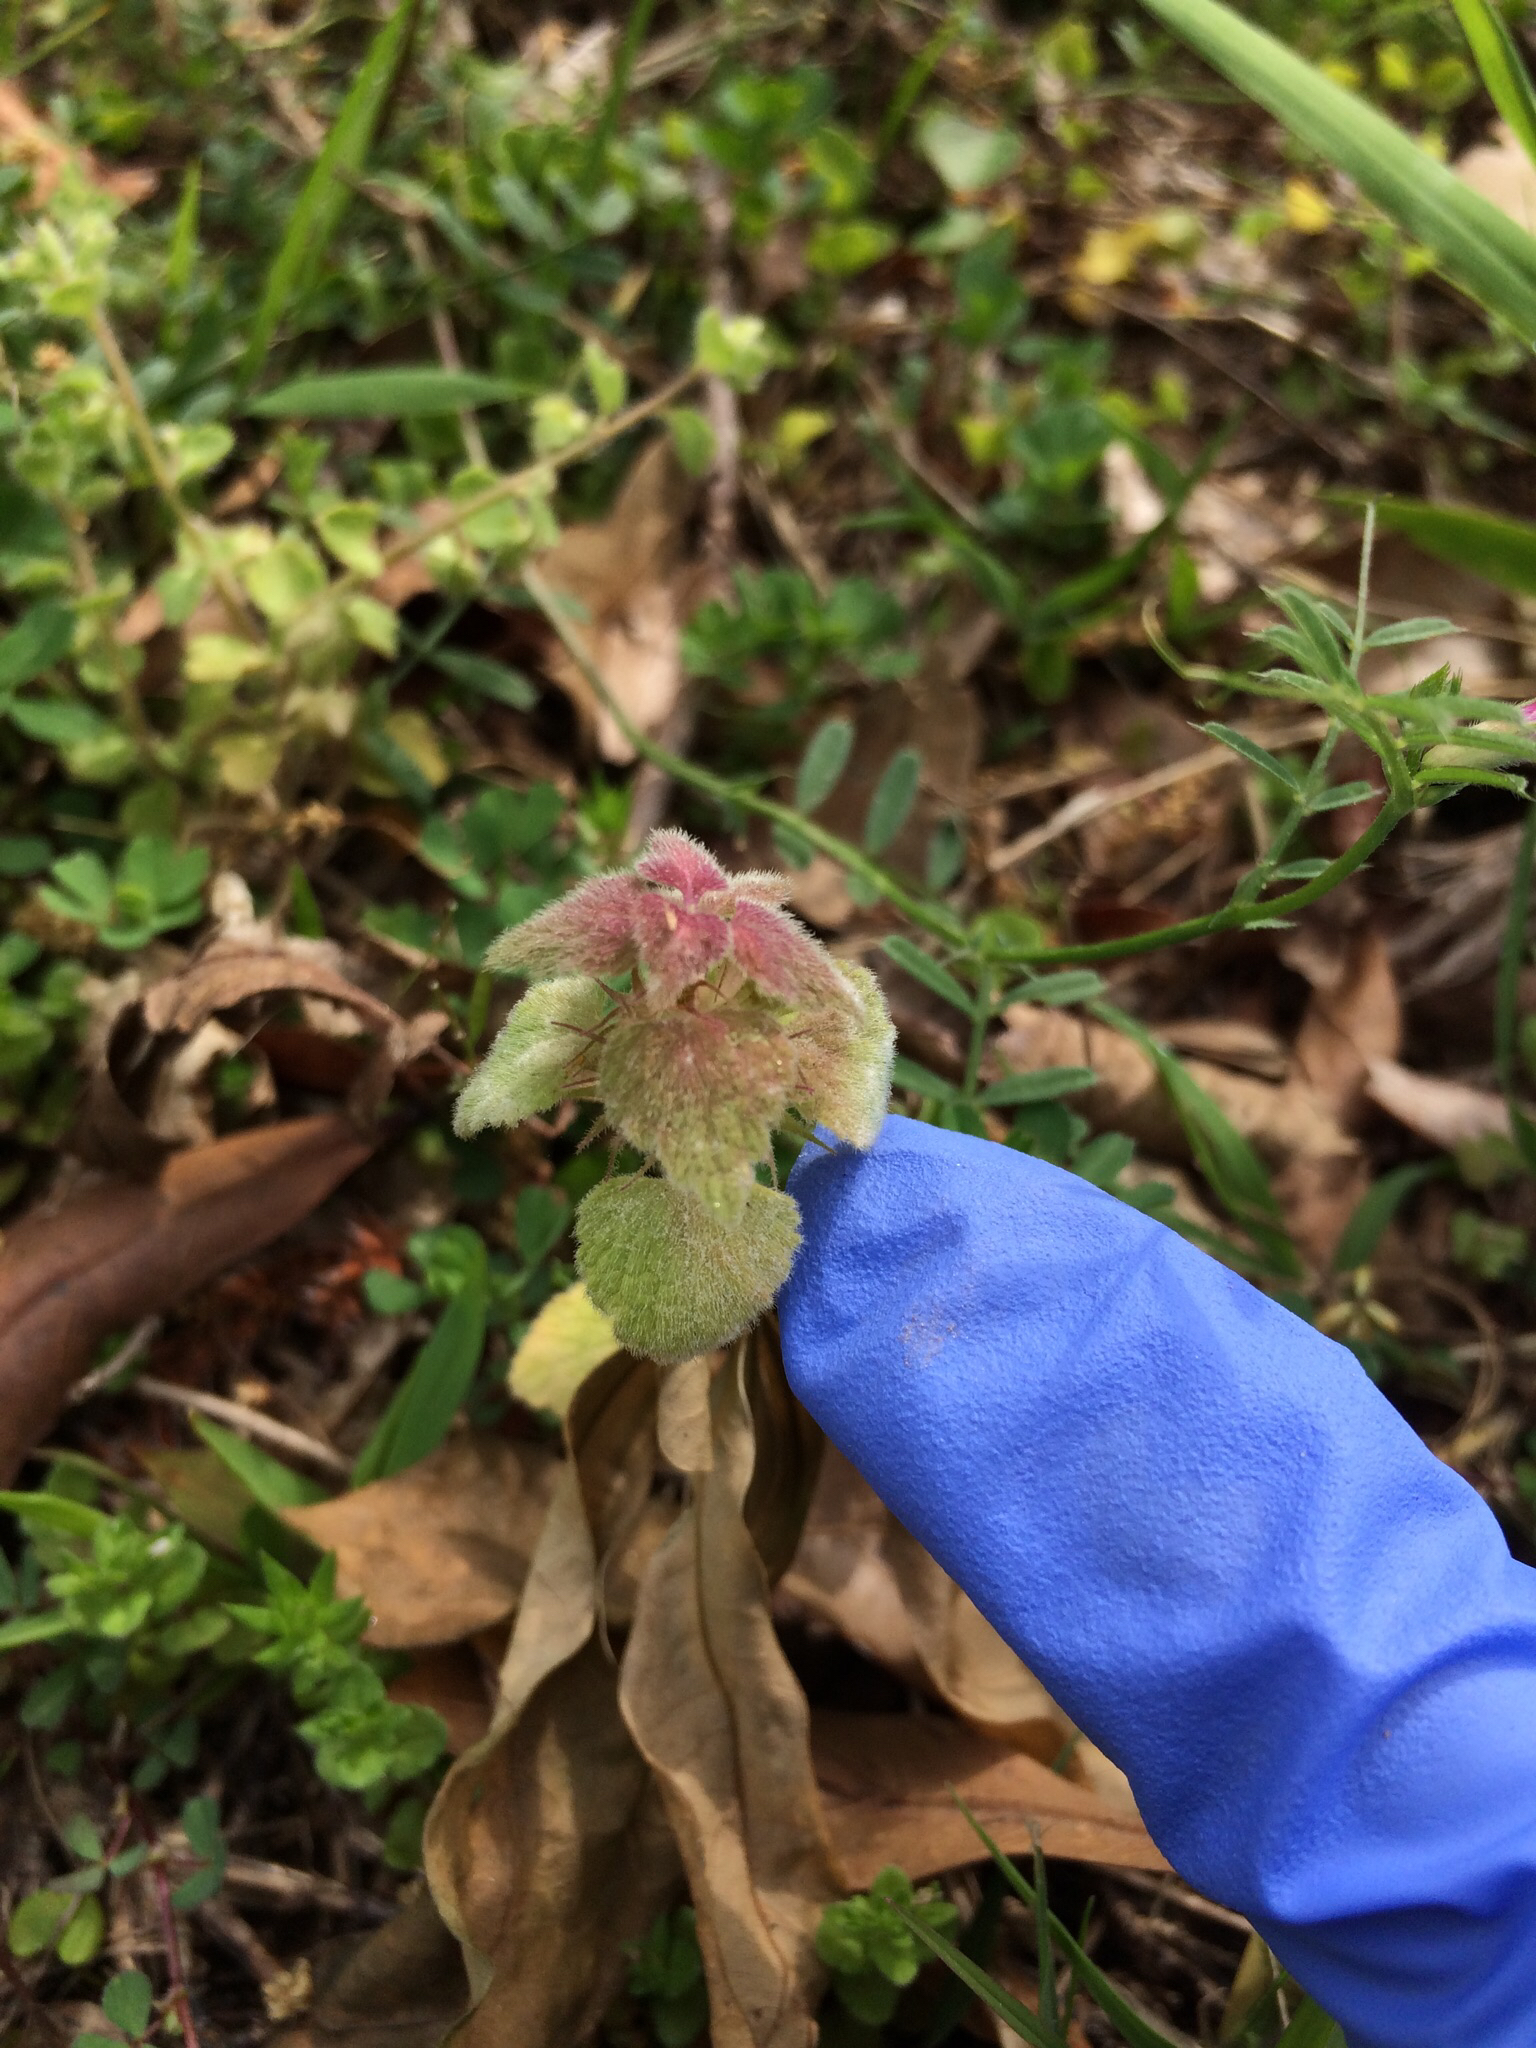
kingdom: Plantae
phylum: Tracheophyta
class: Magnoliopsida
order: Lamiales
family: Lamiaceae
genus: Lamium
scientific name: Lamium purpureum
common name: Red dead-nettle
